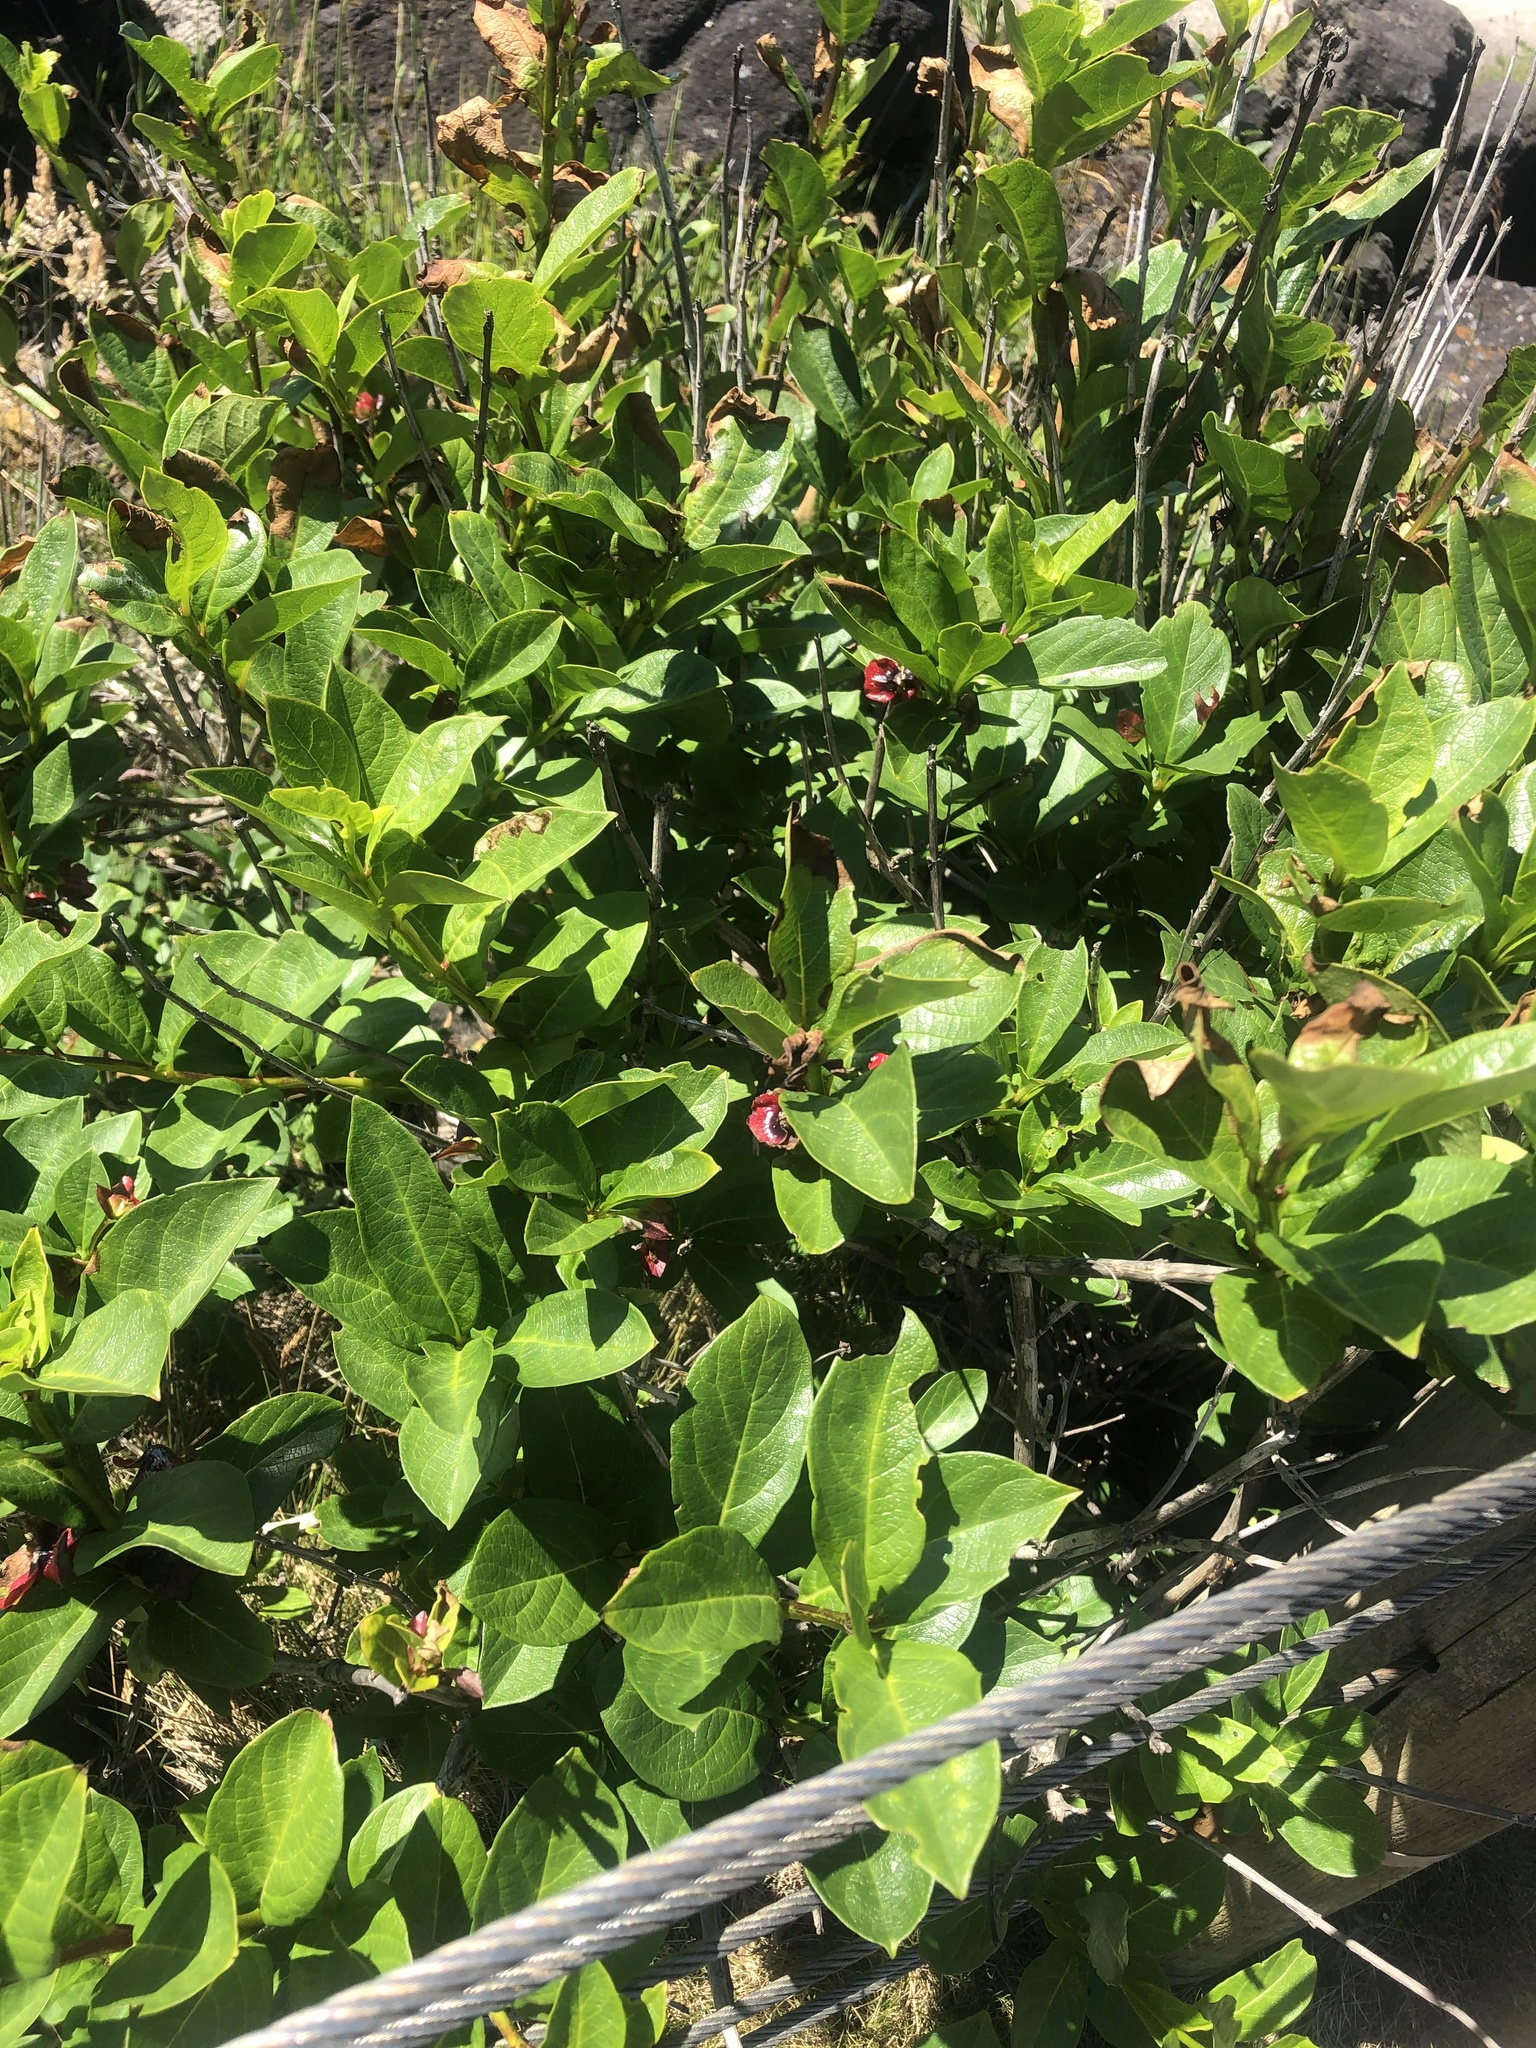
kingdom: Plantae
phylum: Tracheophyta
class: Magnoliopsida
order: Dipsacales
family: Caprifoliaceae
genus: Lonicera
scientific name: Lonicera involucrata
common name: Californian honeysuckle
